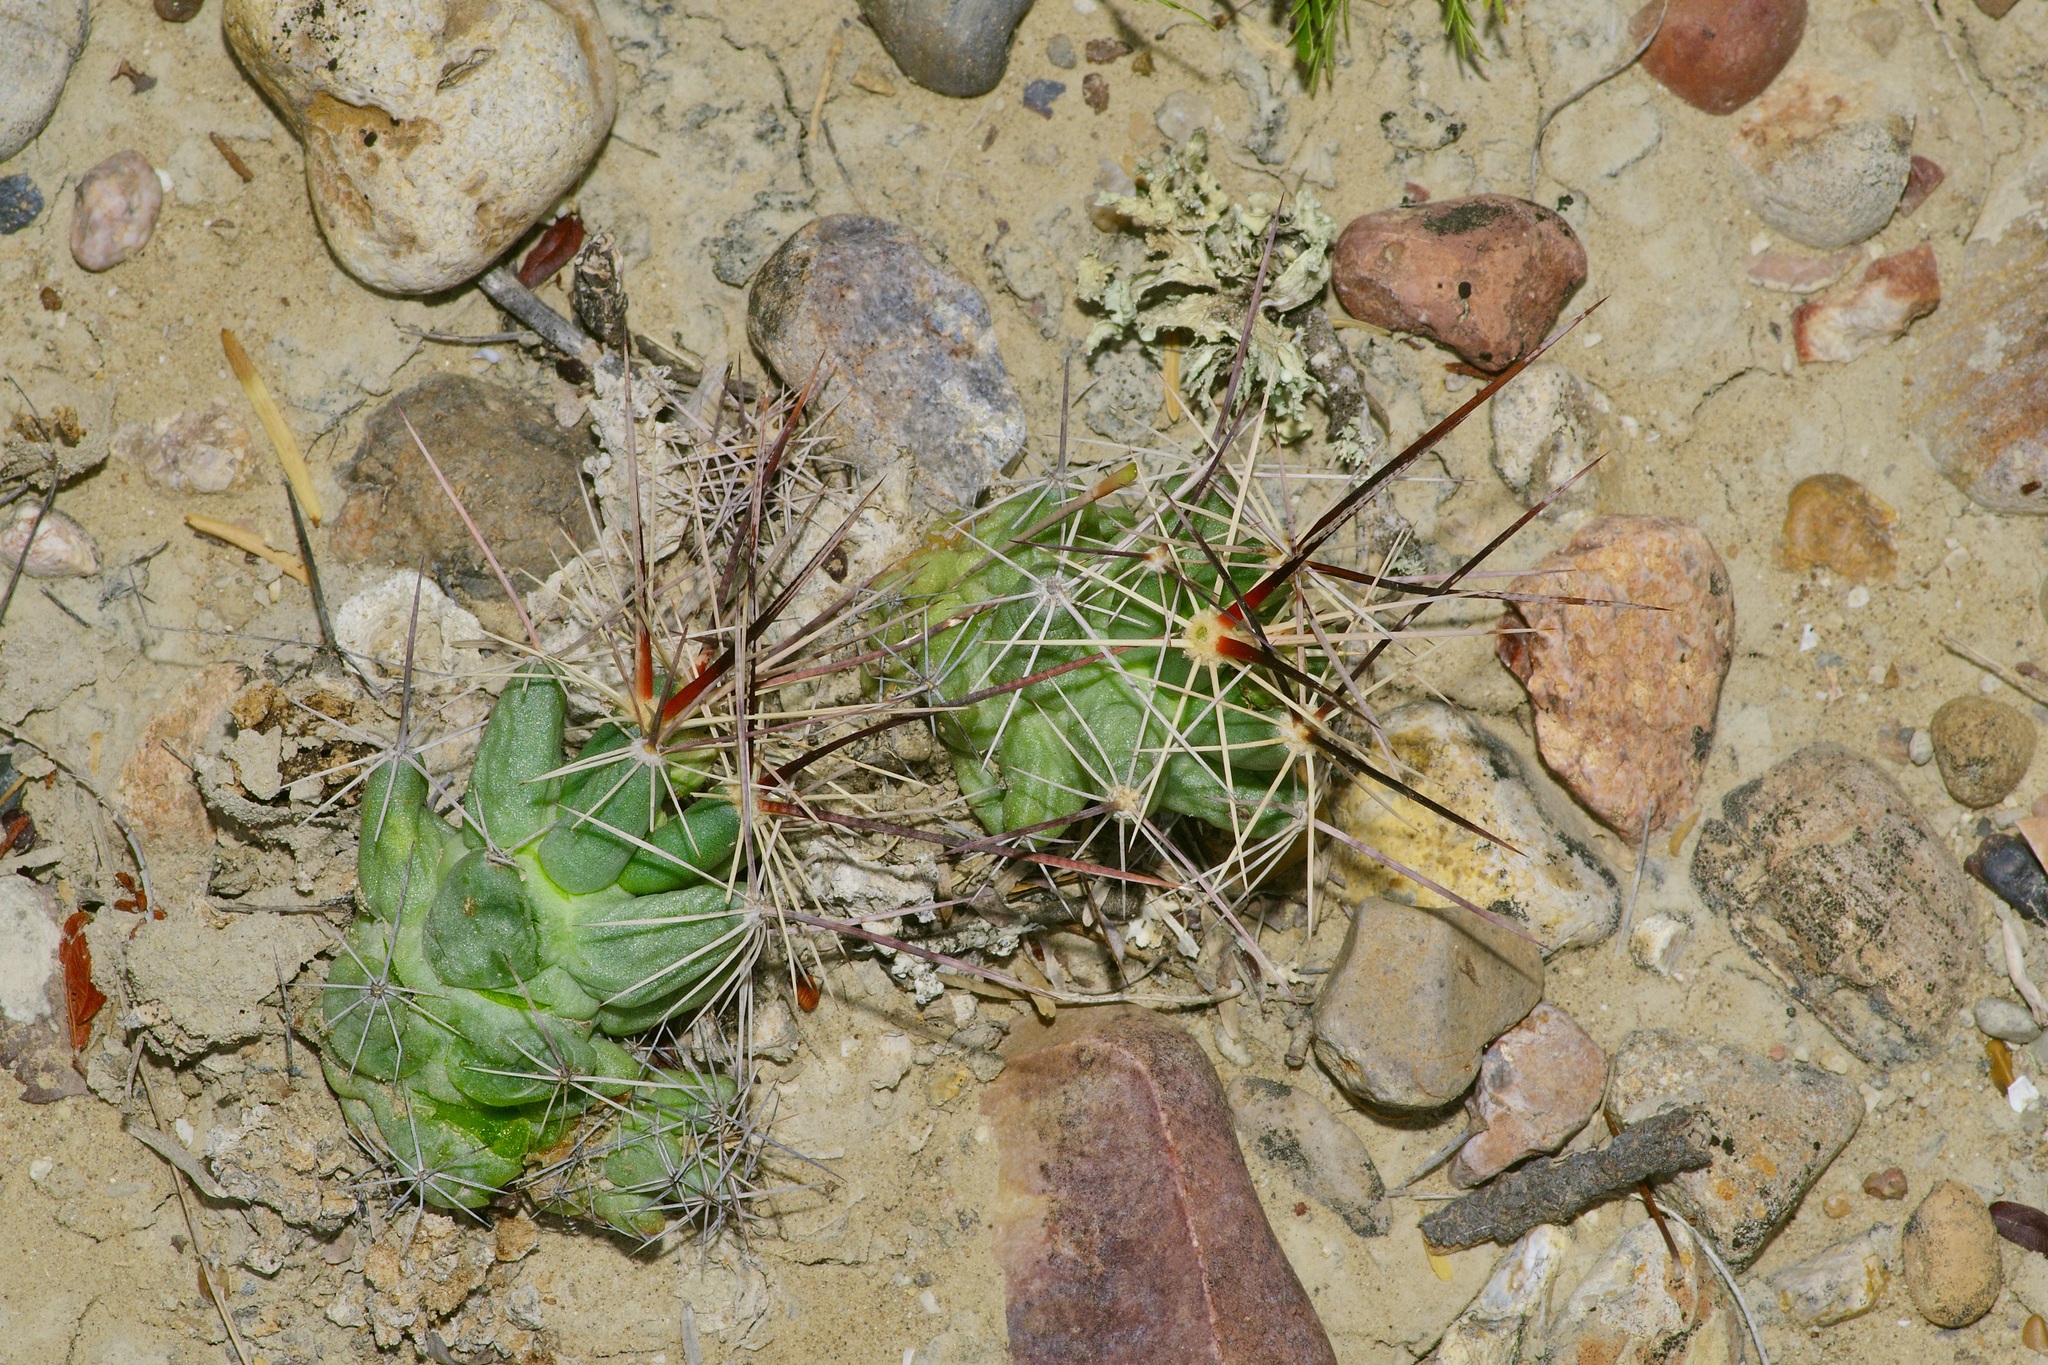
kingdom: Plantae
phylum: Tracheophyta
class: Magnoliopsida
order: Caryophyllales
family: Cactaceae
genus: Pelecyphora
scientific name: Pelecyphora macromeris
